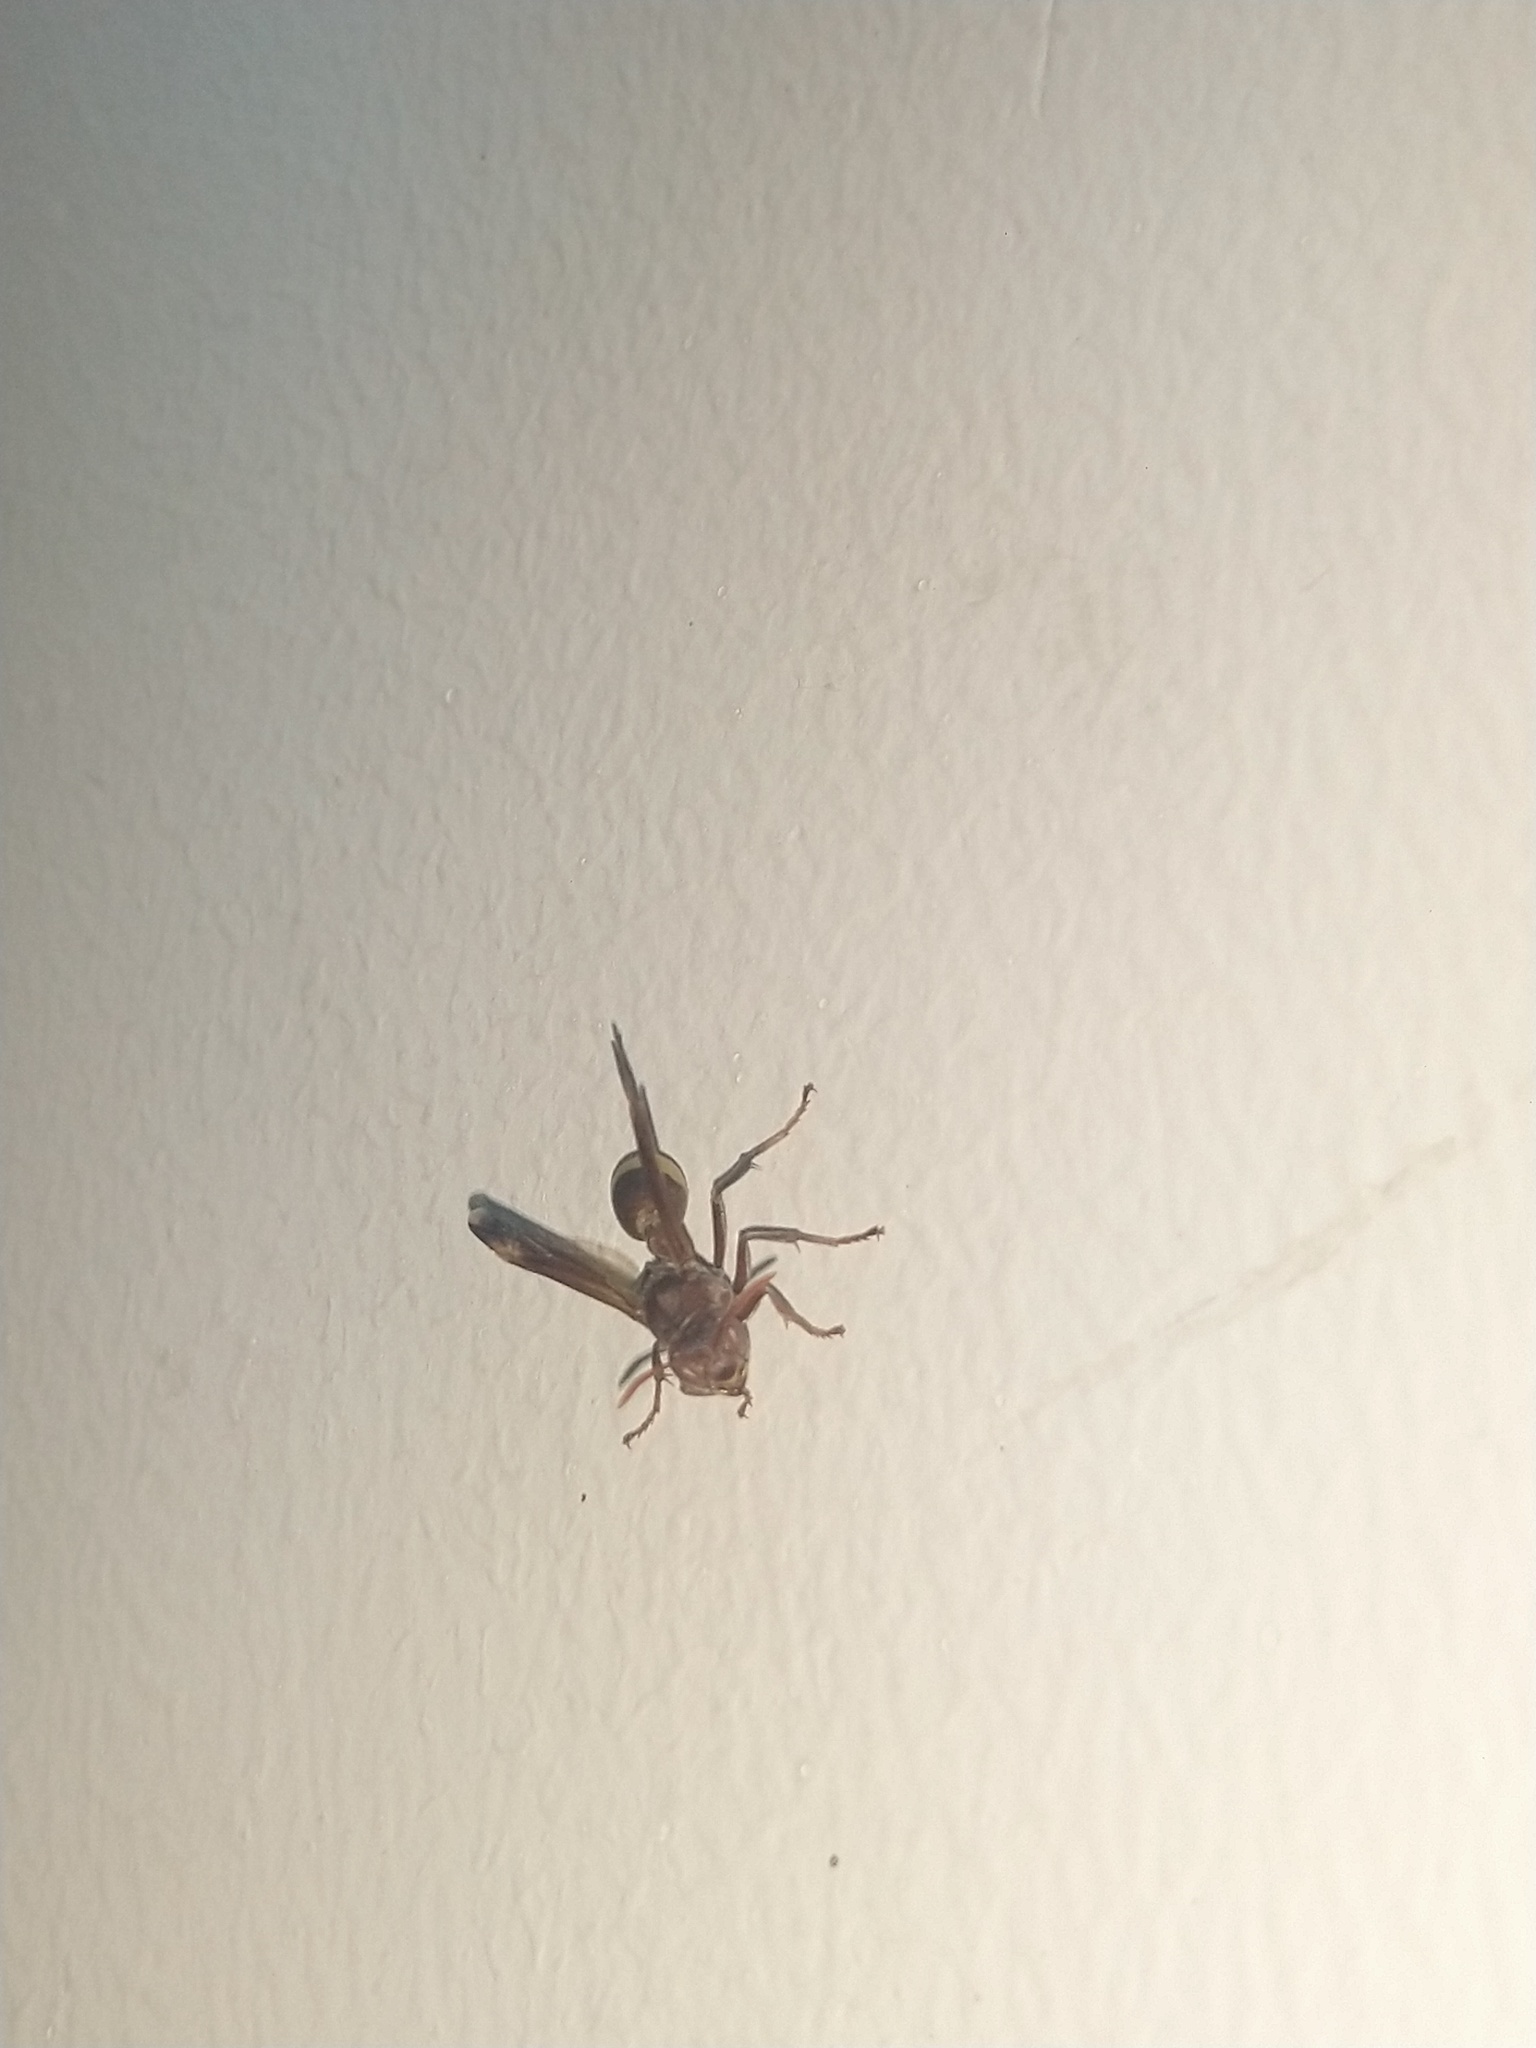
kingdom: Animalia
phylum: Arthropoda
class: Insecta
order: Hymenoptera
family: Vespidae
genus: Ropalidia
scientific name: Ropalidia
